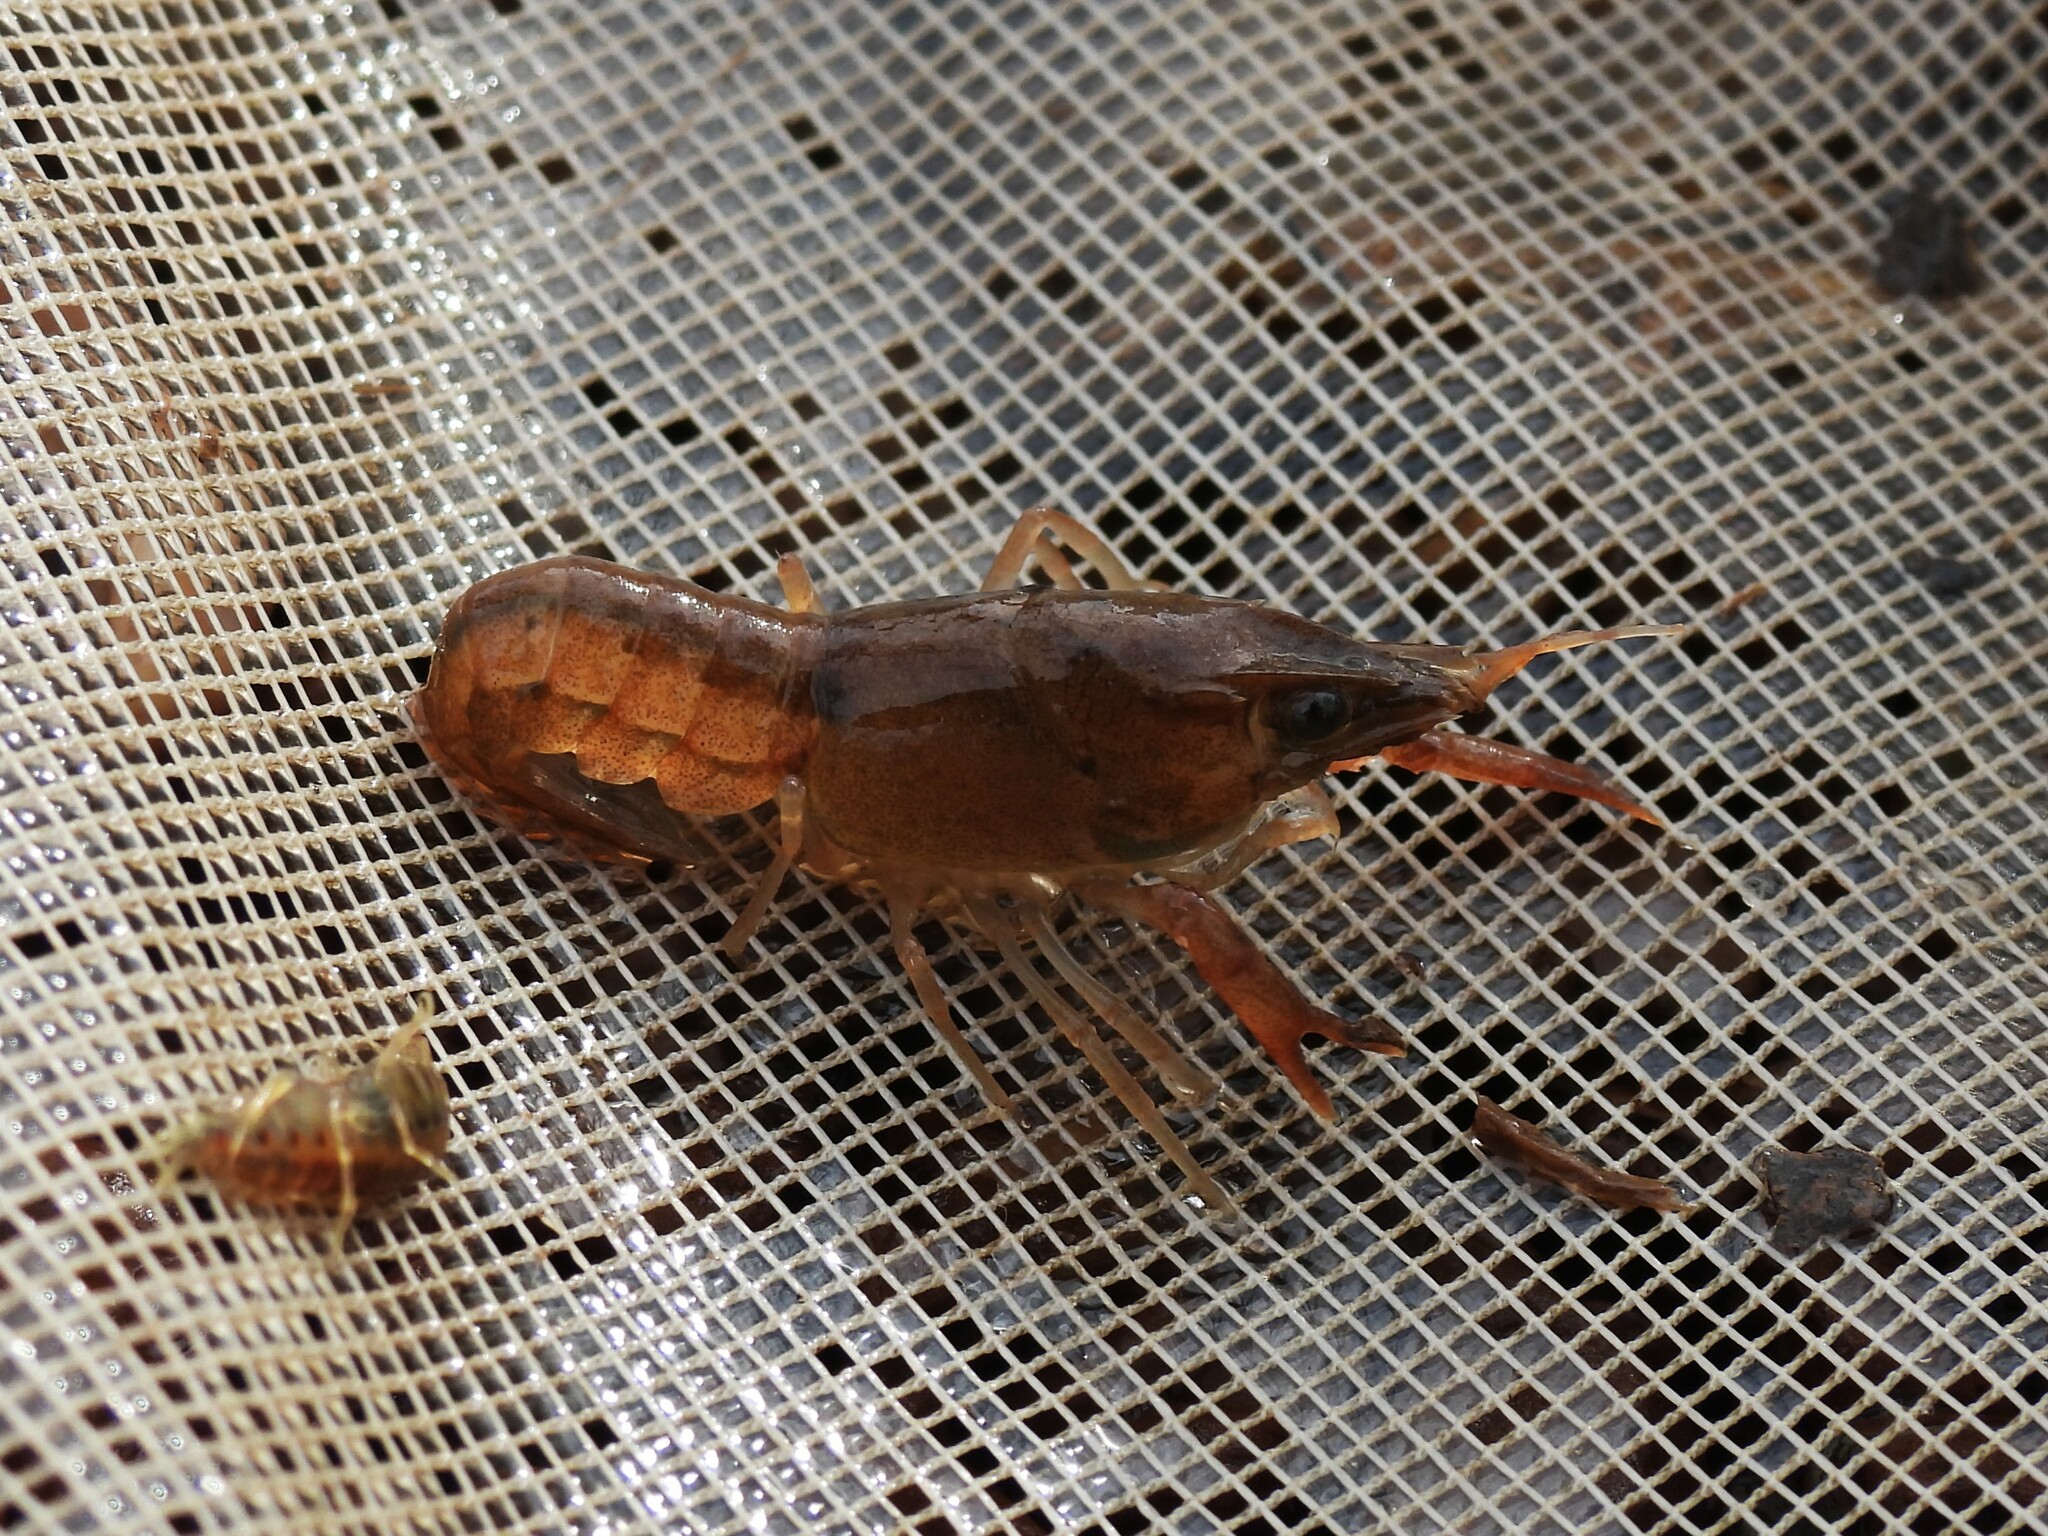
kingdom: Animalia
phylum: Arthropoda
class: Malacostraca
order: Decapoda
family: Cambaridae
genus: Procambarus
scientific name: Procambarus clarkii
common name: Red swamp crayfish
